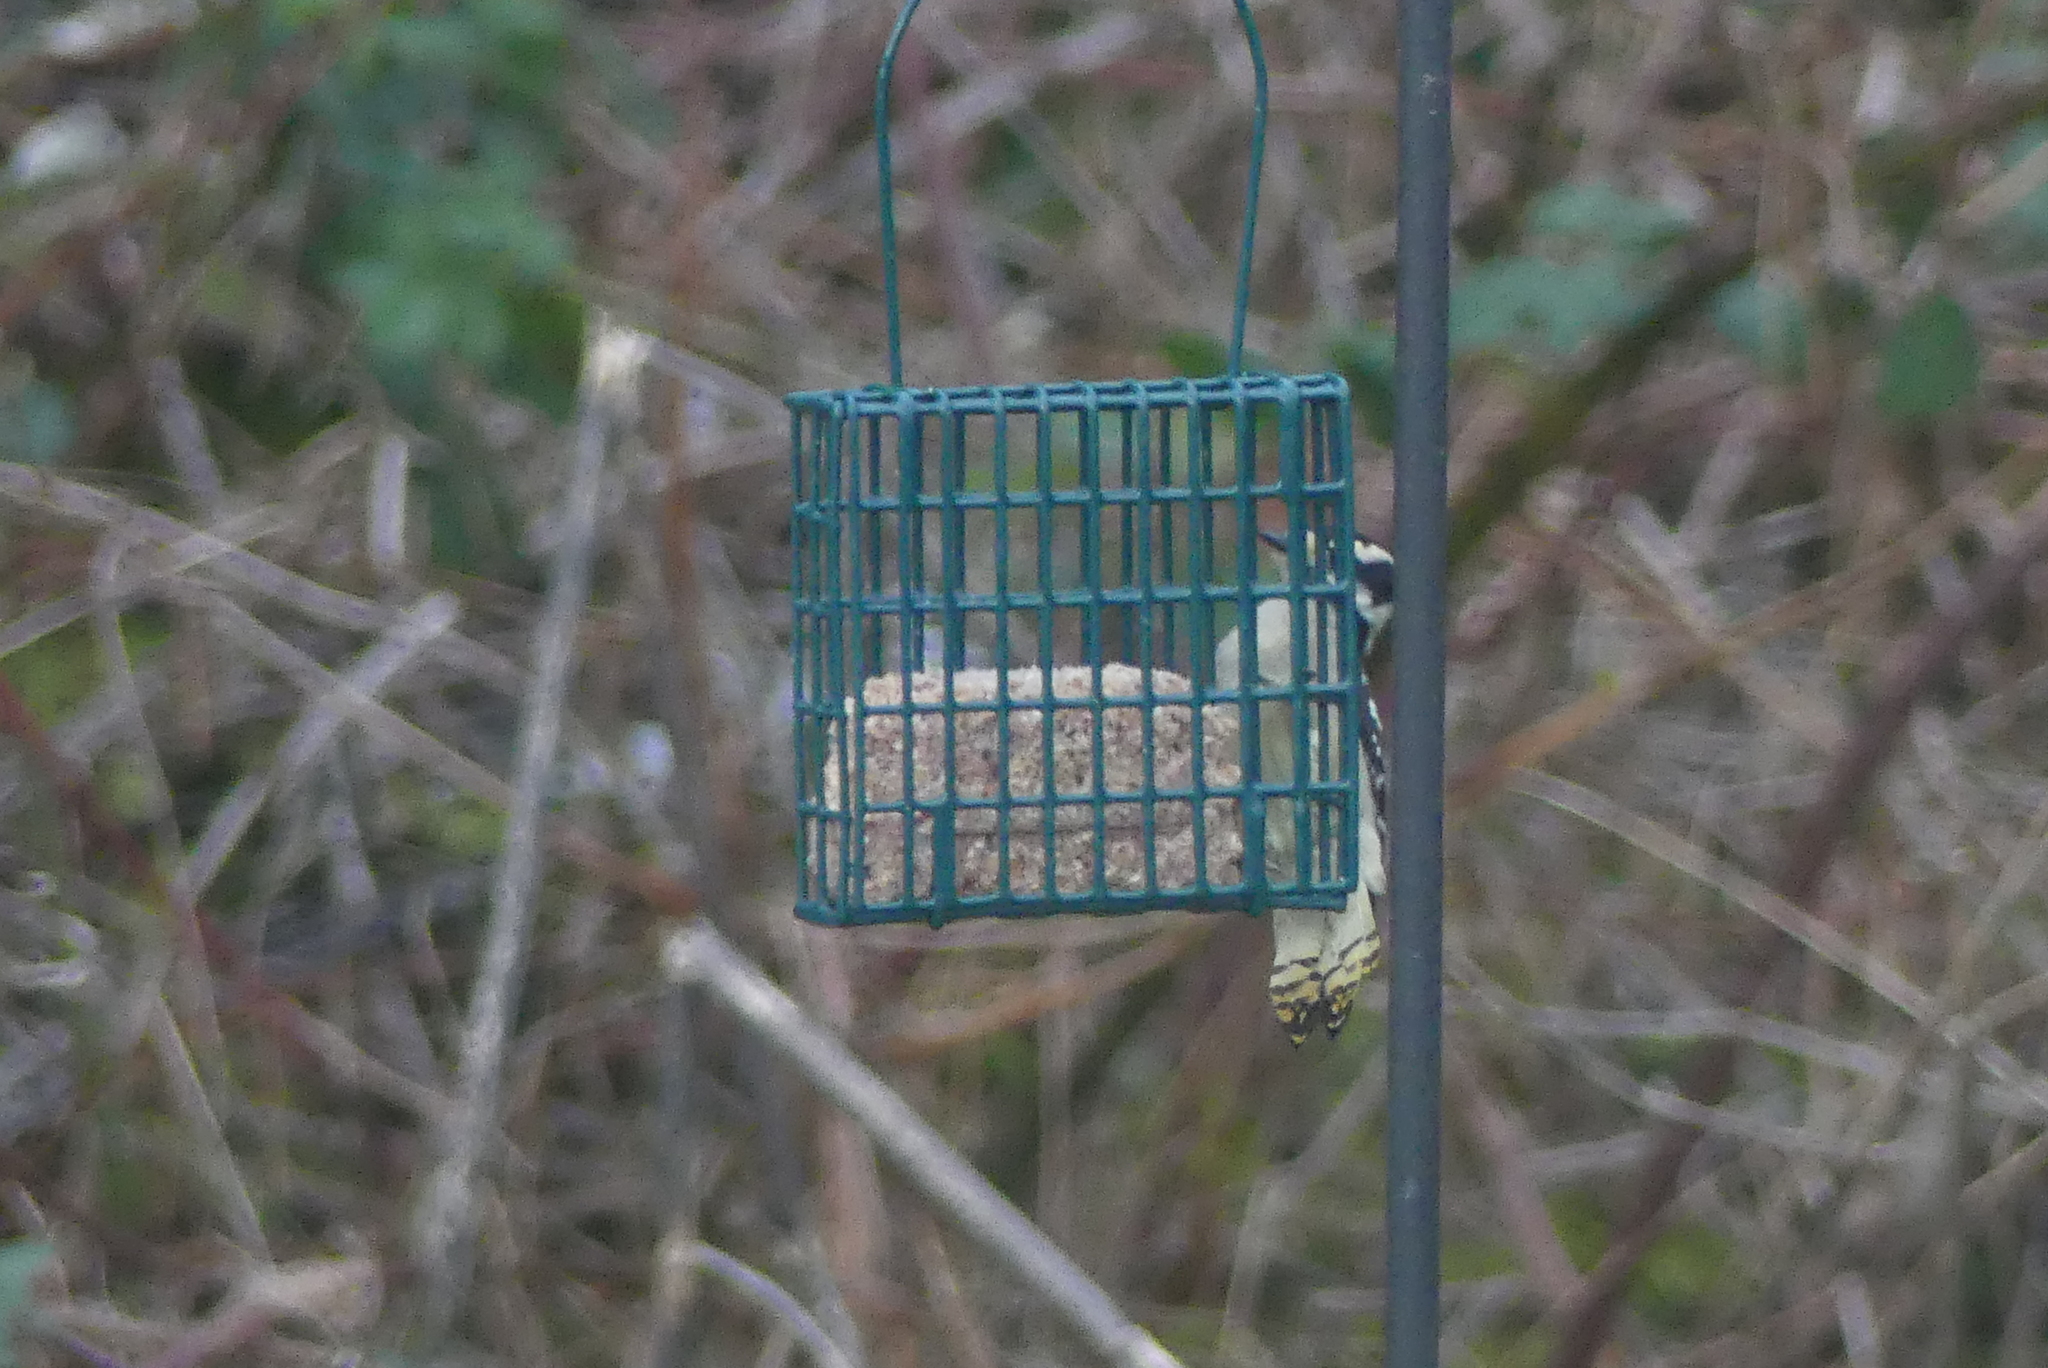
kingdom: Animalia
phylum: Chordata
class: Aves
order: Piciformes
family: Picidae
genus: Dryobates
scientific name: Dryobates pubescens
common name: Downy woodpecker
